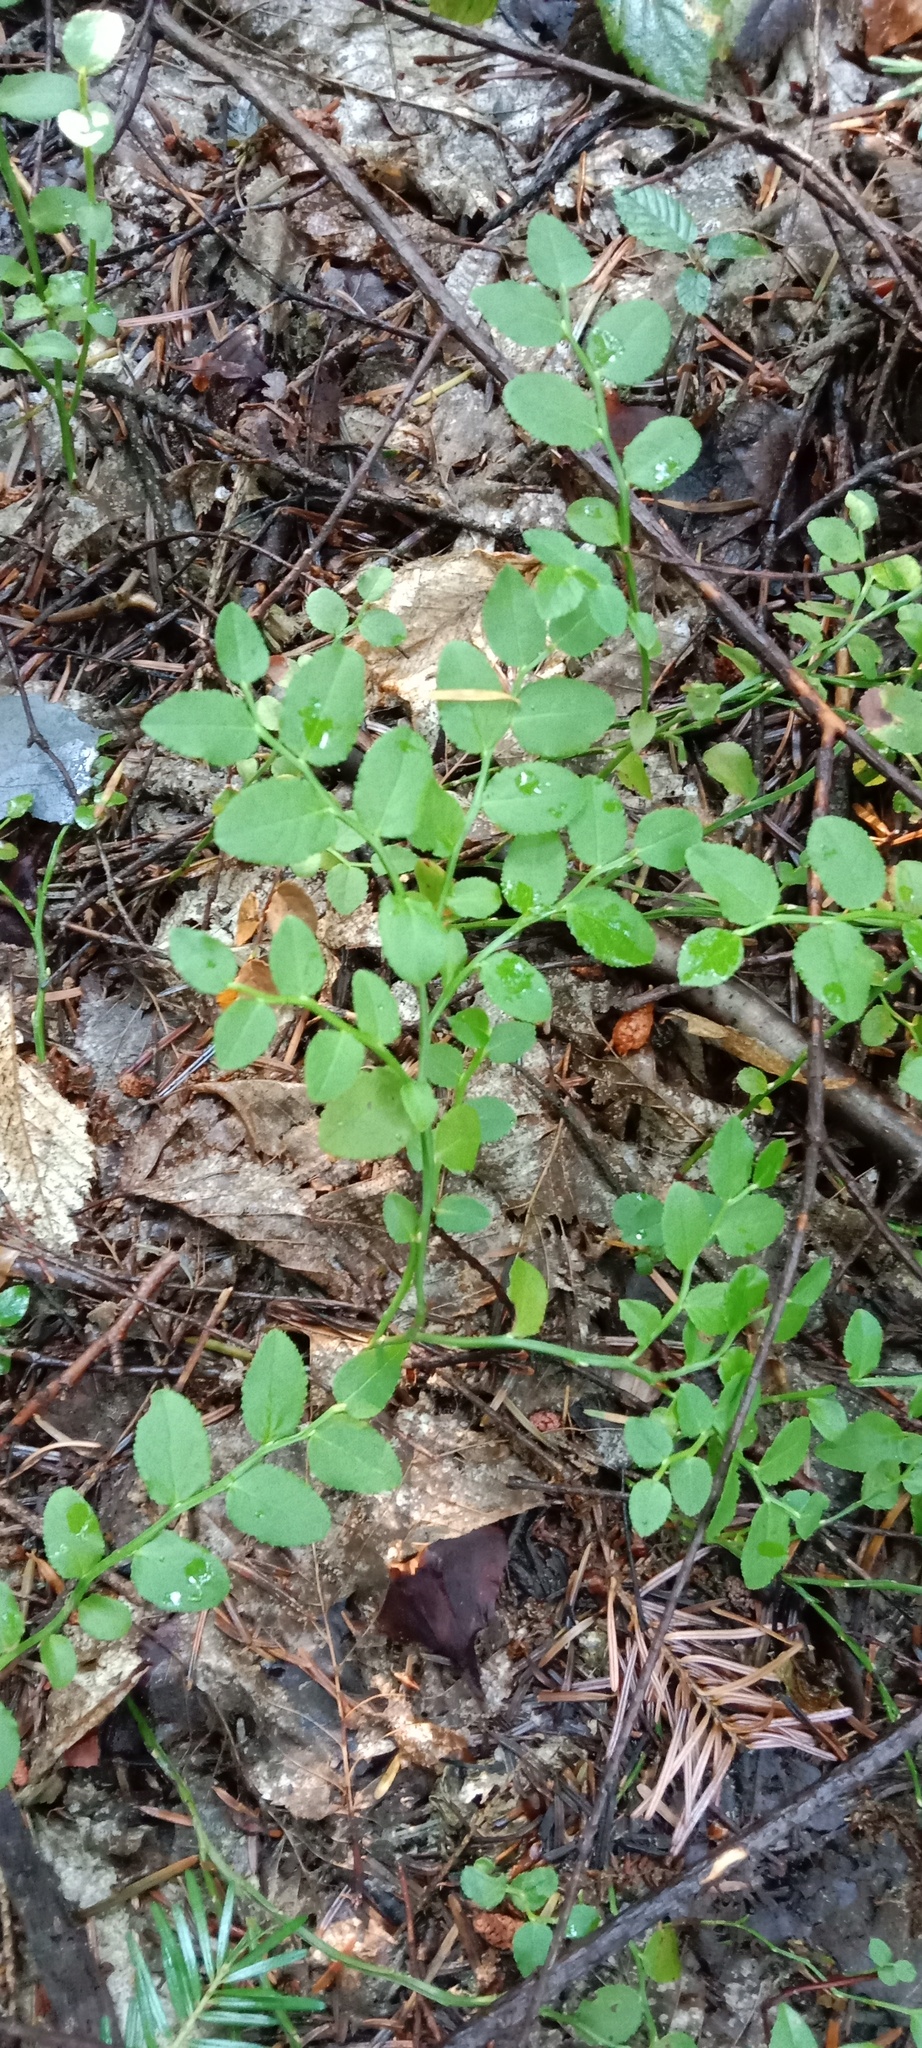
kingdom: Plantae
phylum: Tracheophyta
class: Magnoliopsida
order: Ericales
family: Ericaceae
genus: Vaccinium
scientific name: Vaccinium myrtillus
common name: Bilberry
